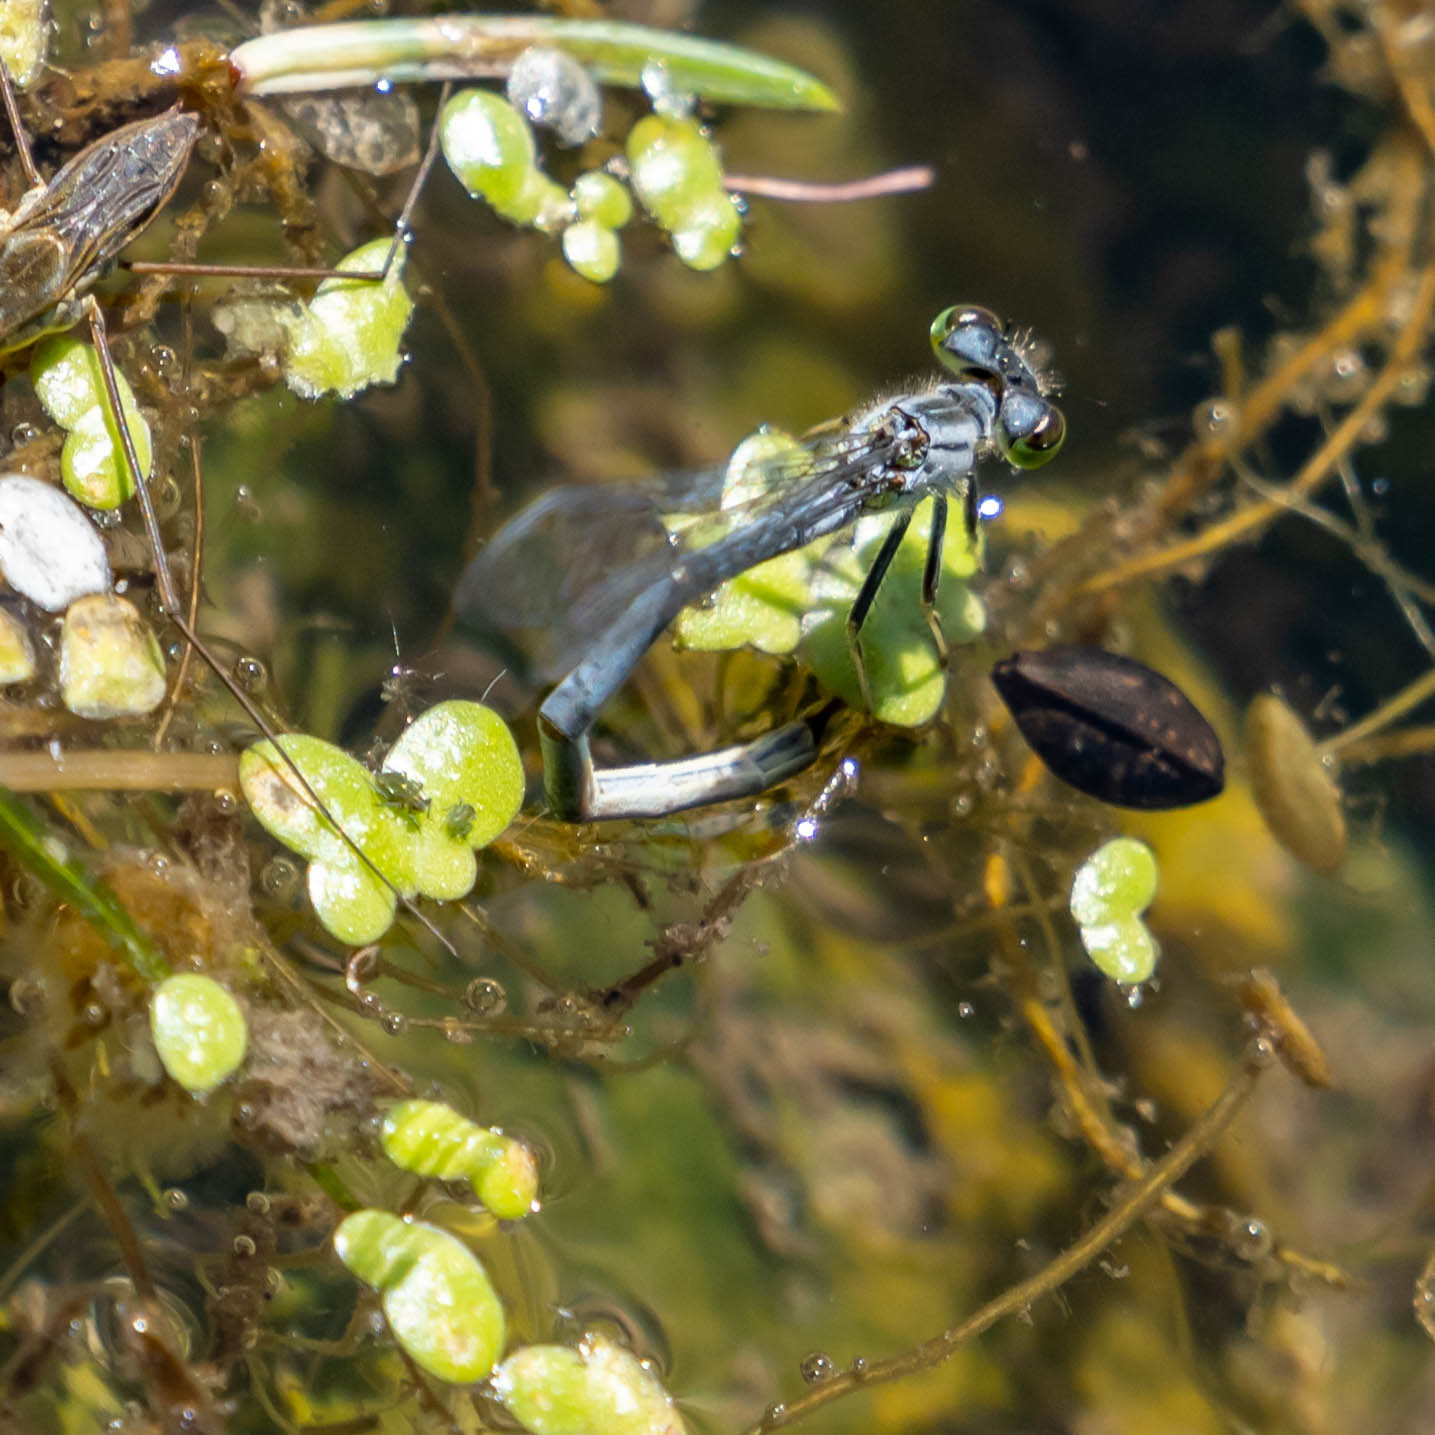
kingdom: Animalia
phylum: Arthropoda
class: Insecta
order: Odonata
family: Coenagrionidae
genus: Ischnura
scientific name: Ischnura verticalis
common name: Eastern forktail
